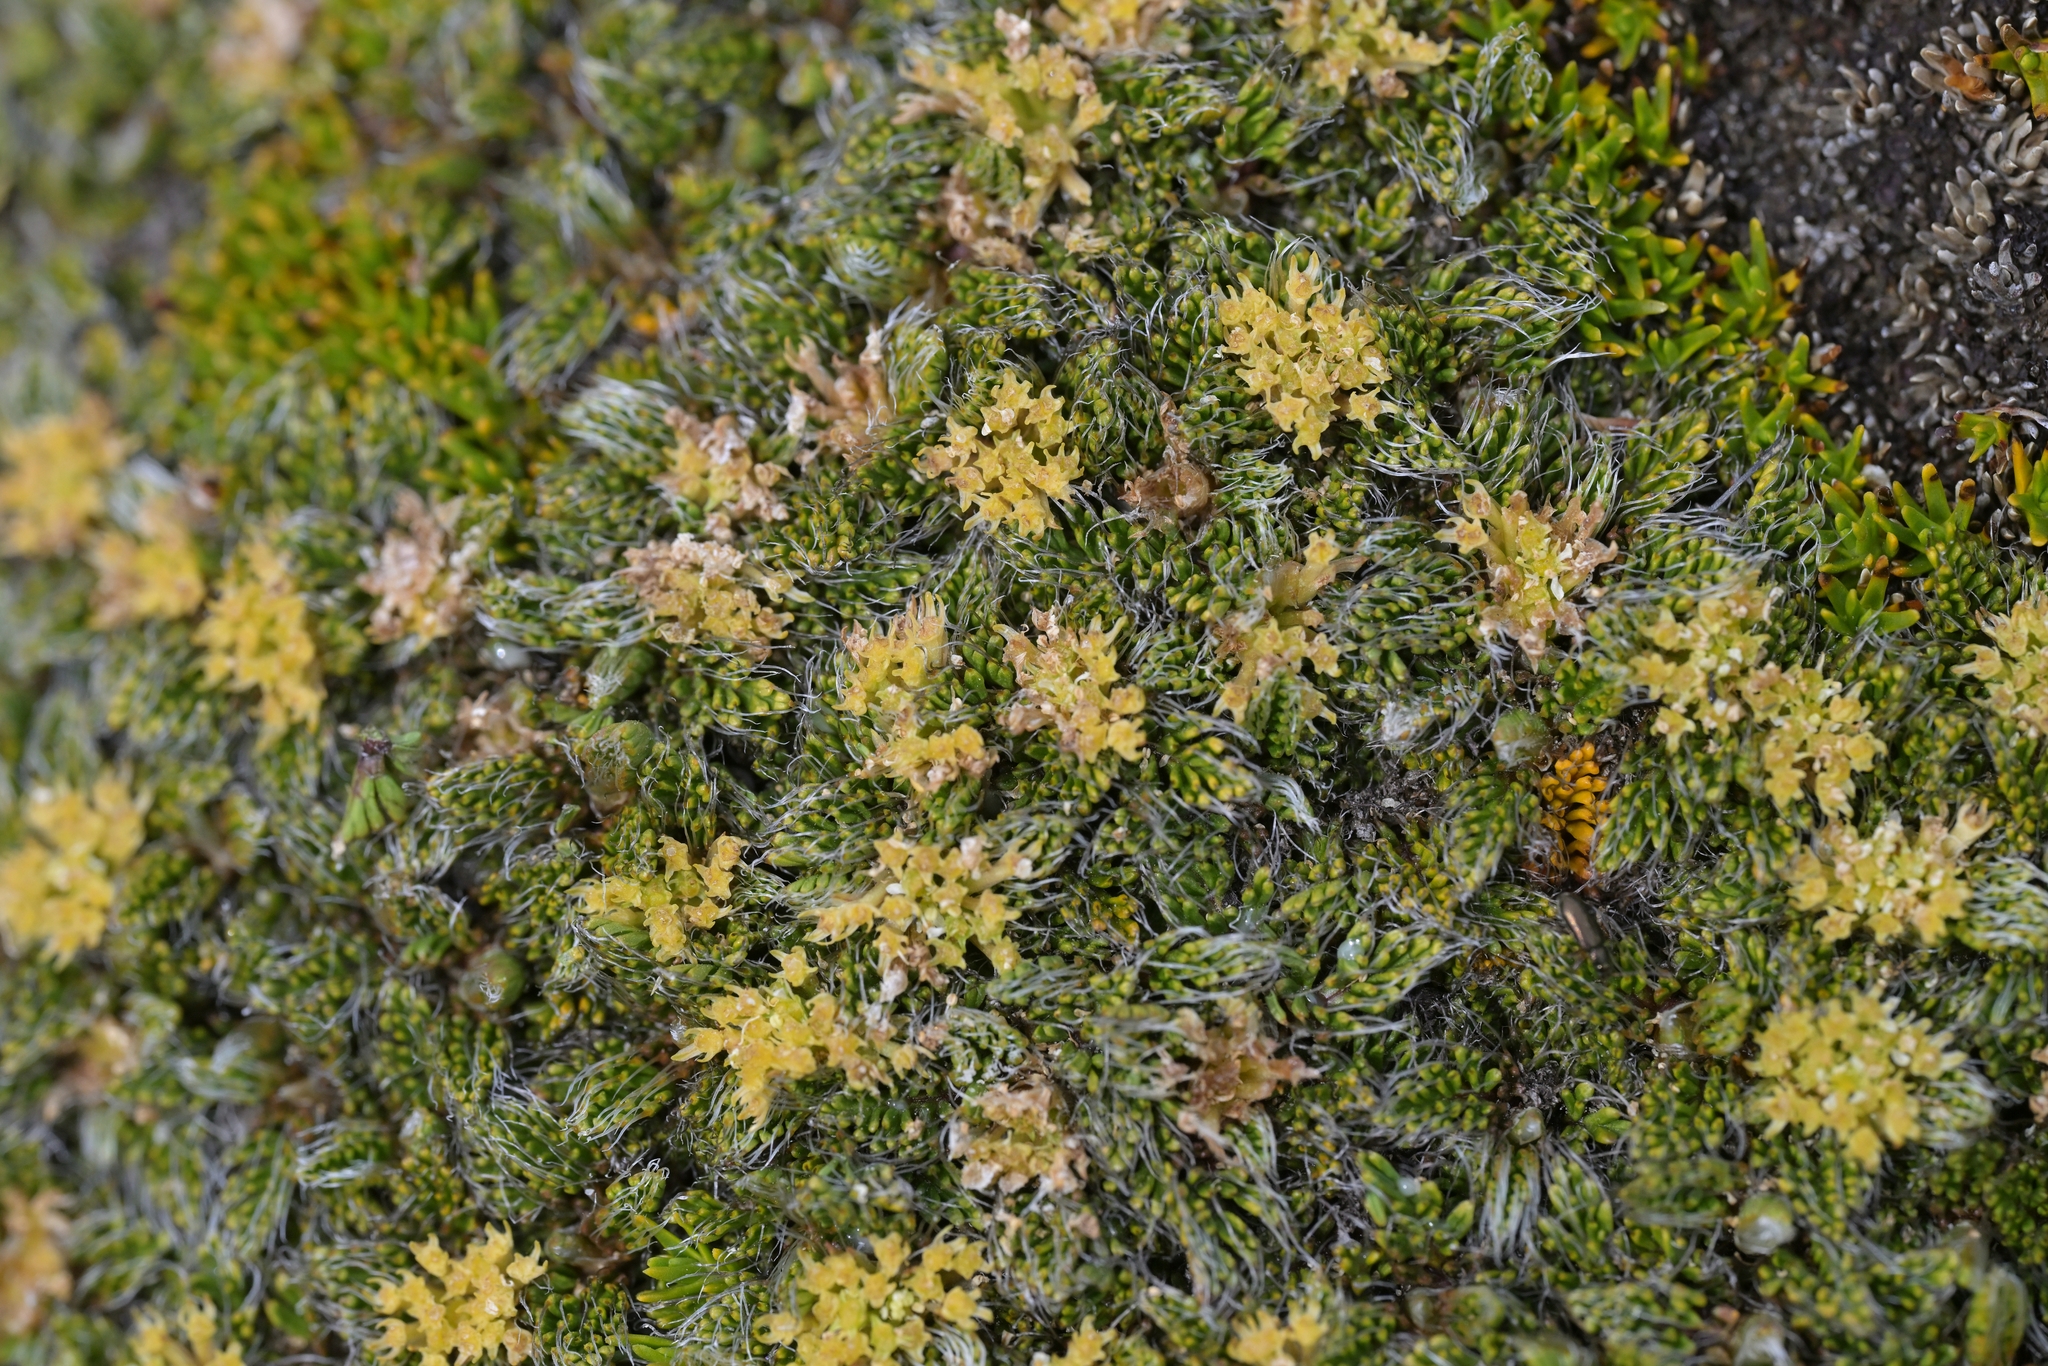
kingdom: Plantae
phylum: Tracheophyta
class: Magnoliopsida
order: Apiales
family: Apiaceae
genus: Anisotome
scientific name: Anisotome imbricata
